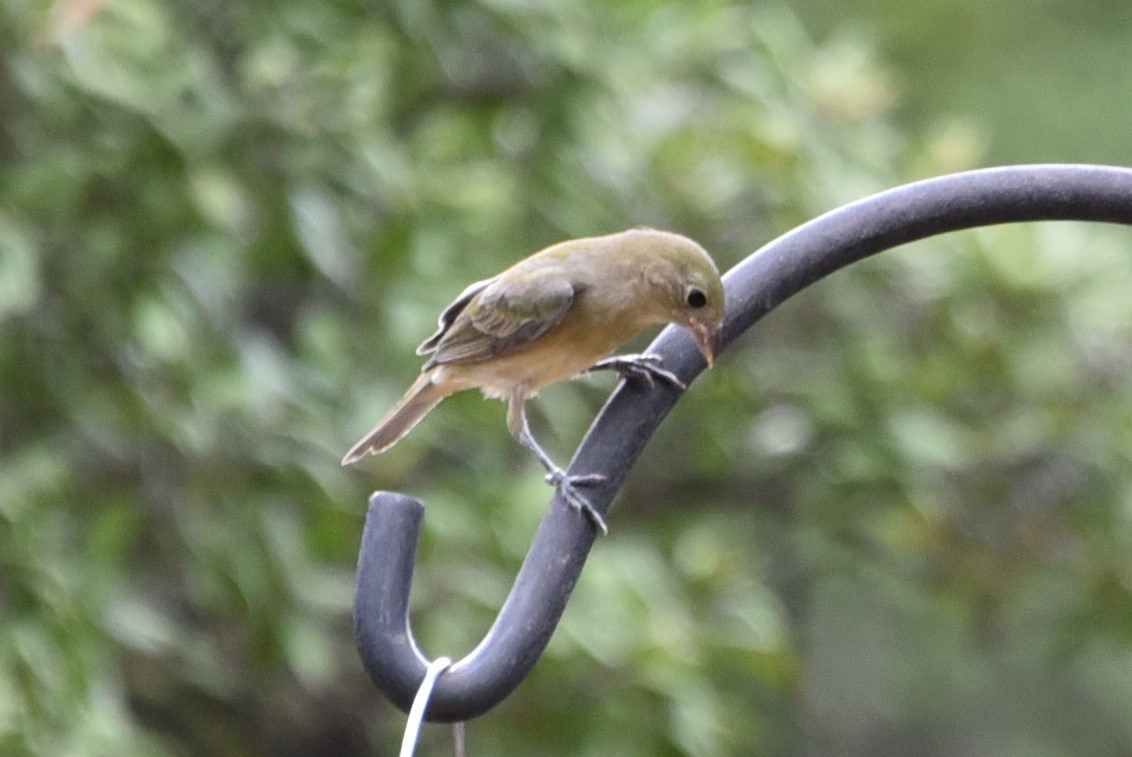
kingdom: Animalia
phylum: Chordata
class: Aves
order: Passeriformes
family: Cardinalidae
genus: Passerina
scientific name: Passerina ciris
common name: Painted bunting
